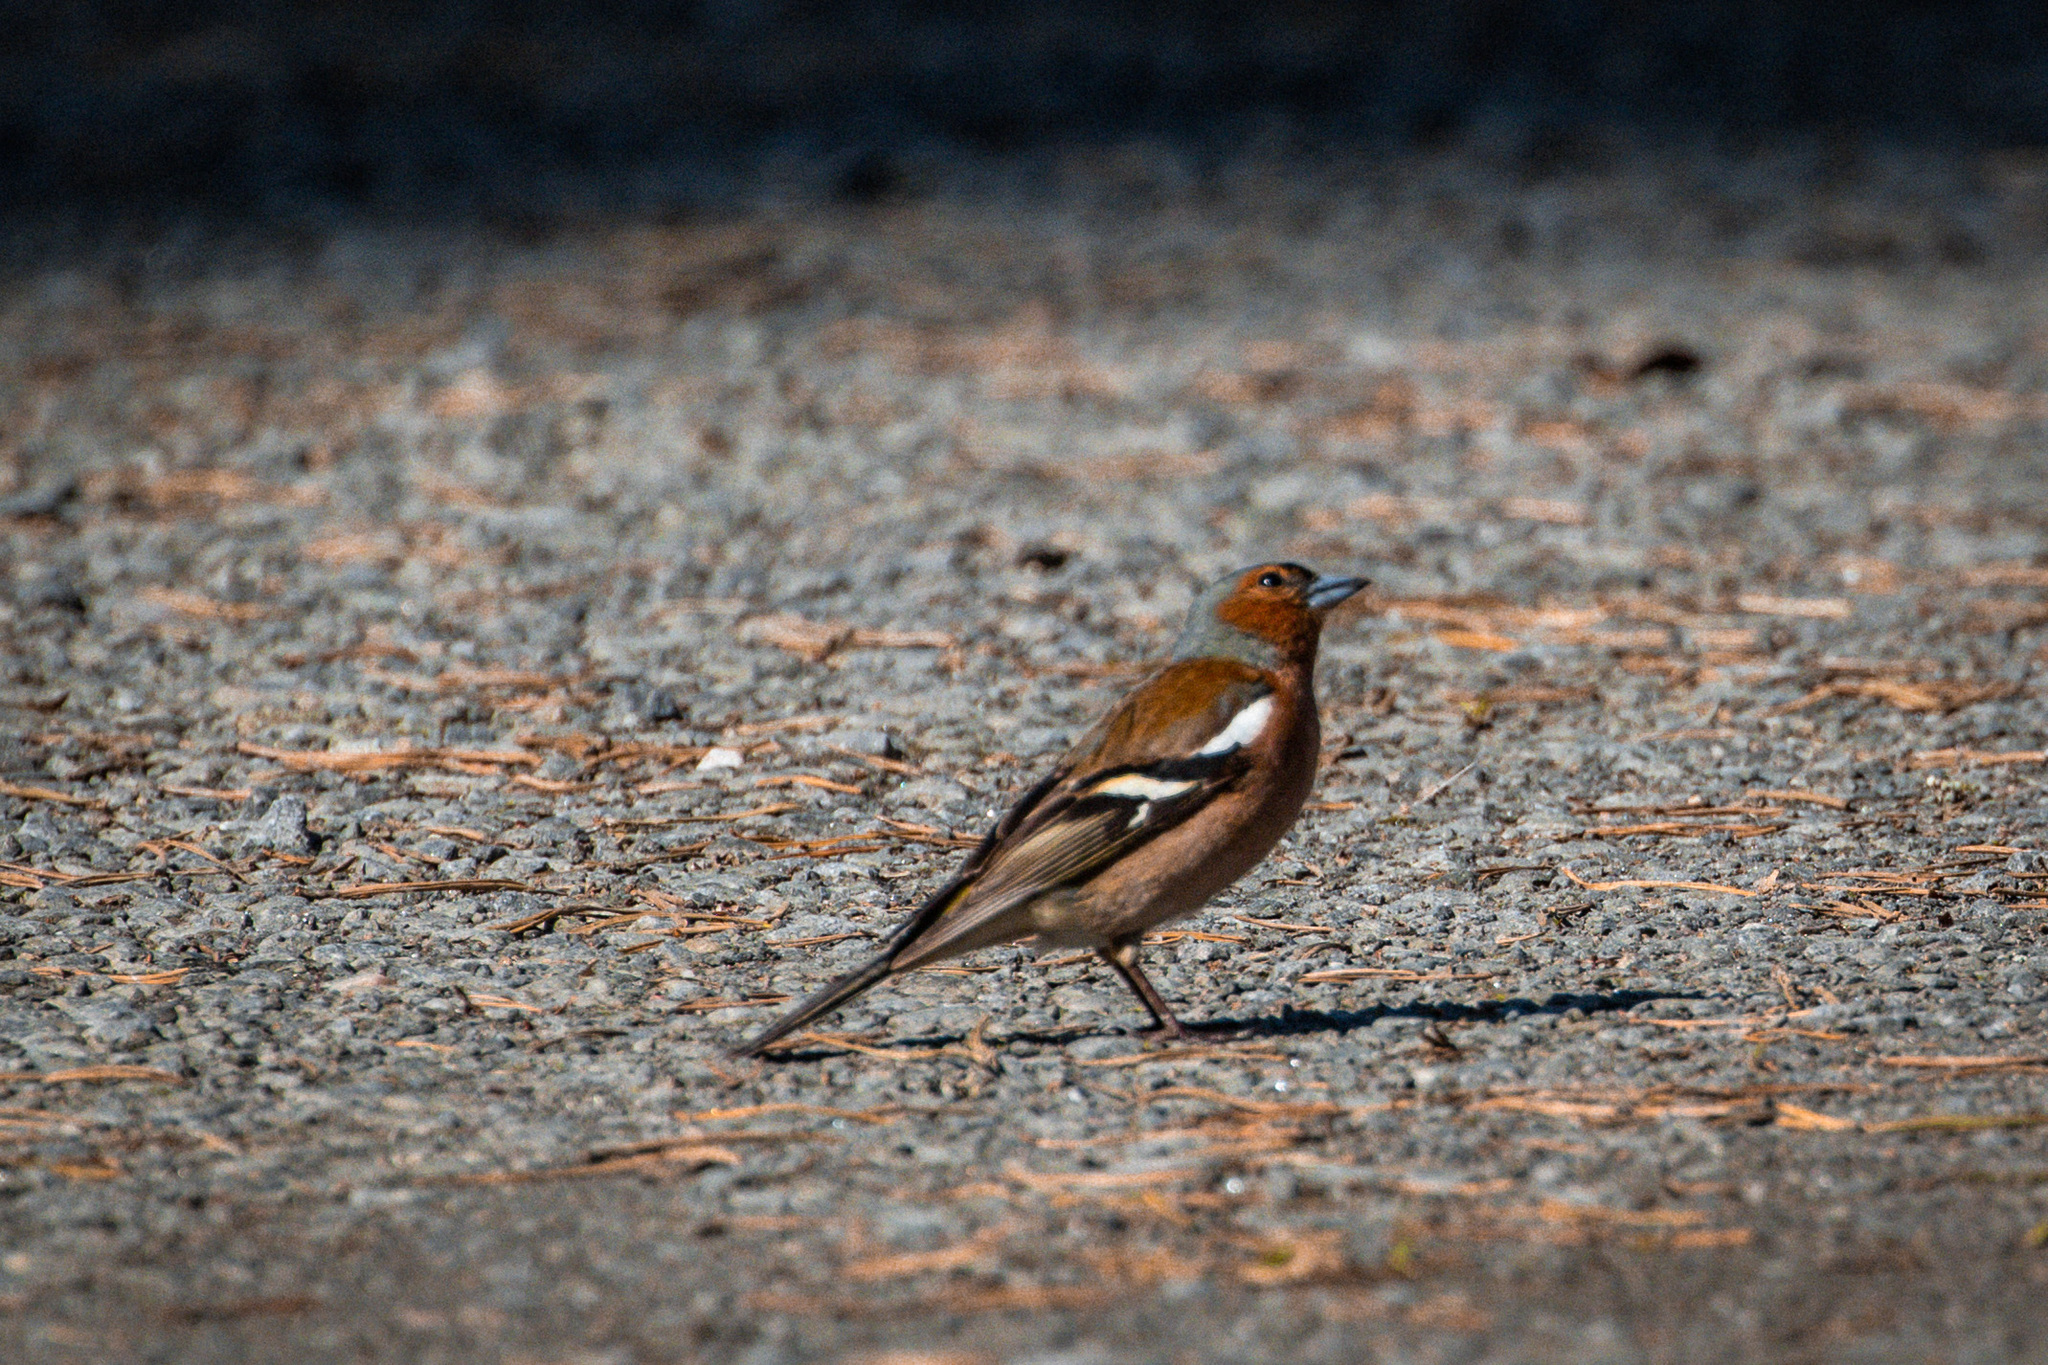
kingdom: Animalia
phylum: Chordata
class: Aves
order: Passeriformes
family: Fringillidae
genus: Fringilla
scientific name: Fringilla coelebs
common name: Common chaffinch
